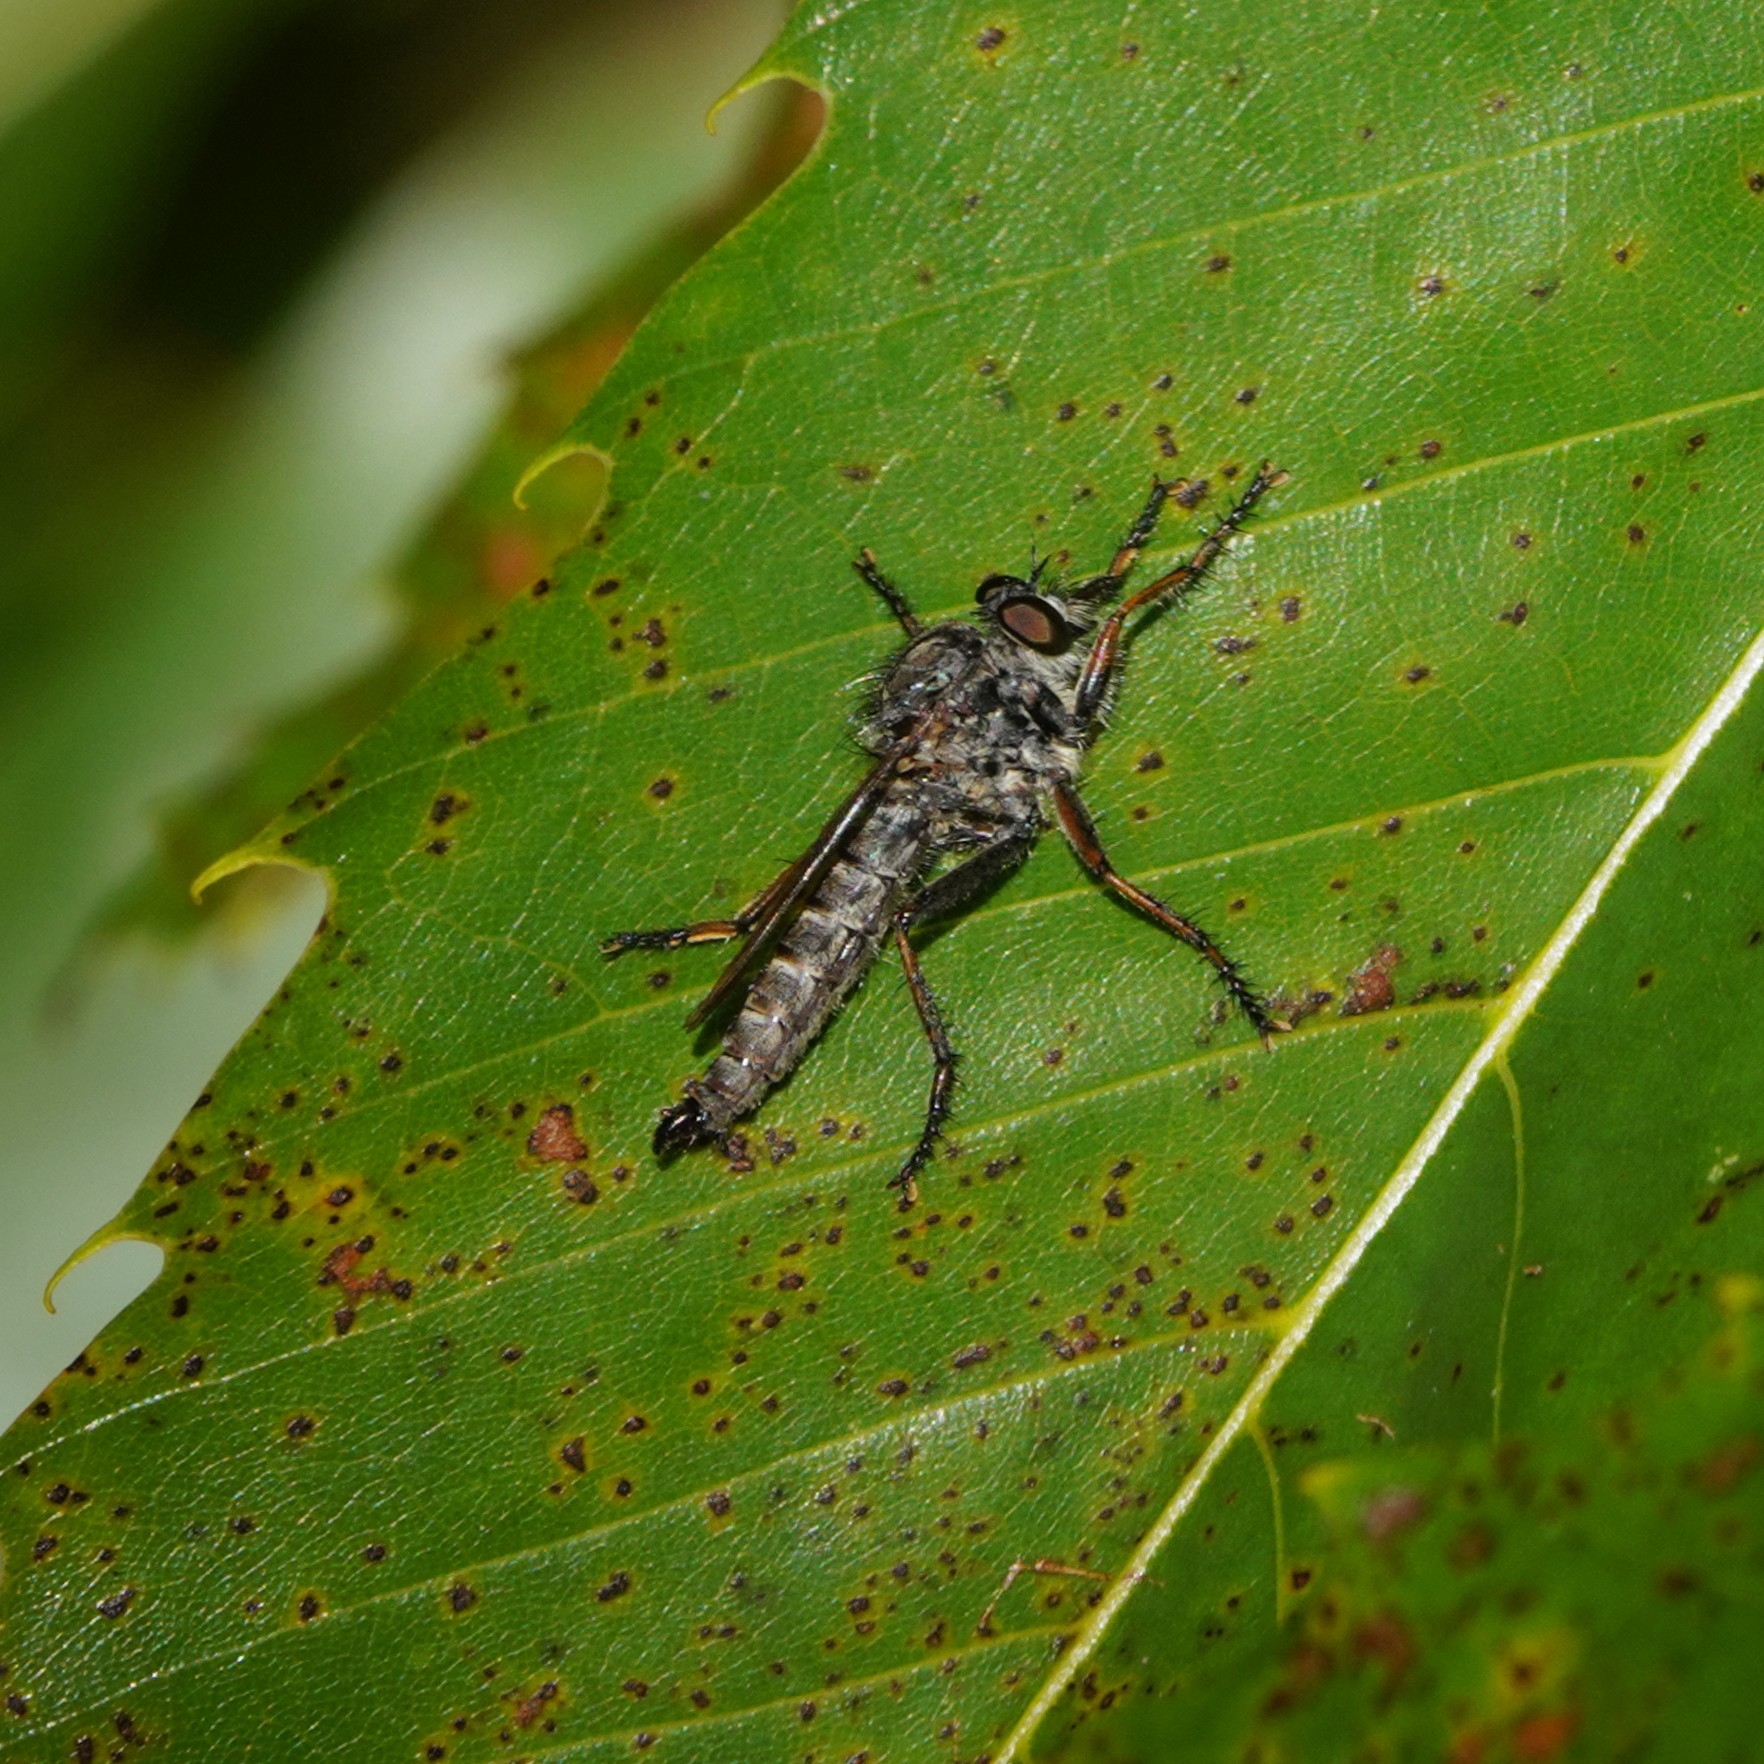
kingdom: Animalia
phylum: Arthropoda
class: Insecta
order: Diptera
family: Asilidae
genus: Machimus
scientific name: Machimus atricapillus
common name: Kite-tailed robberfly
